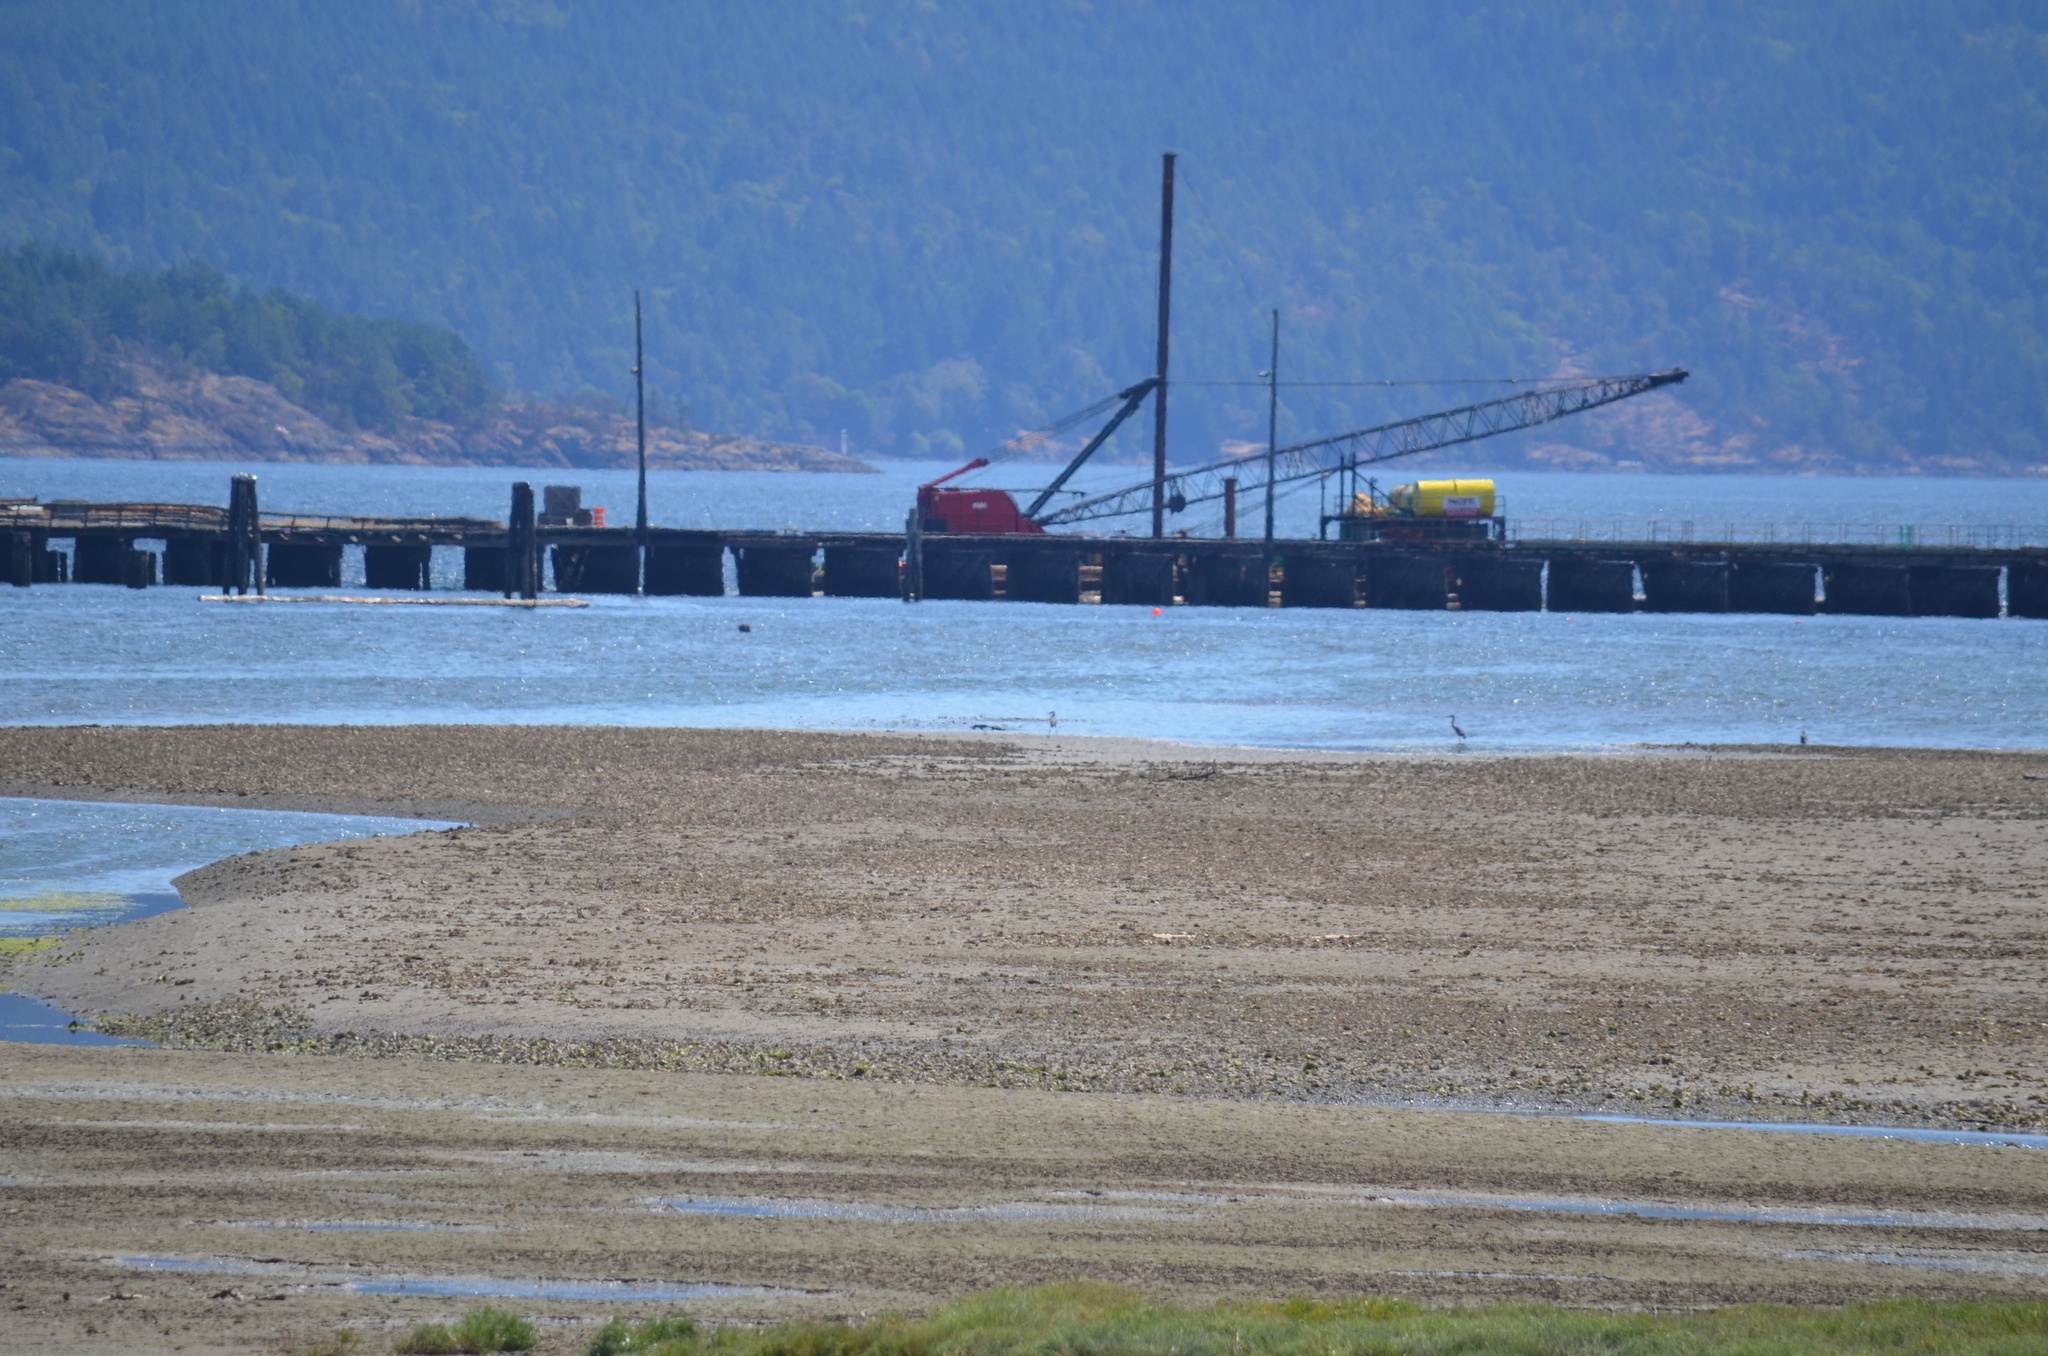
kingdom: Animalia
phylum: Chordata
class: Aves
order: Pelecaniformes
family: Ardeidae
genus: Ardea
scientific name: Ardea herodias
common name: Great blue heron
